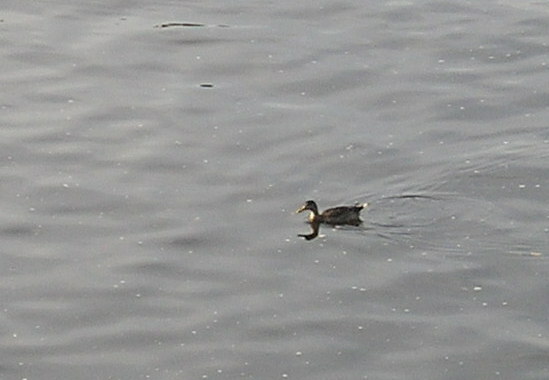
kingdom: Animalia
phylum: Chordata
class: Aves
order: Anseriformes
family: Anatidae
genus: Anas
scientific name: Anas platyrhynchos
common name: Mallard
